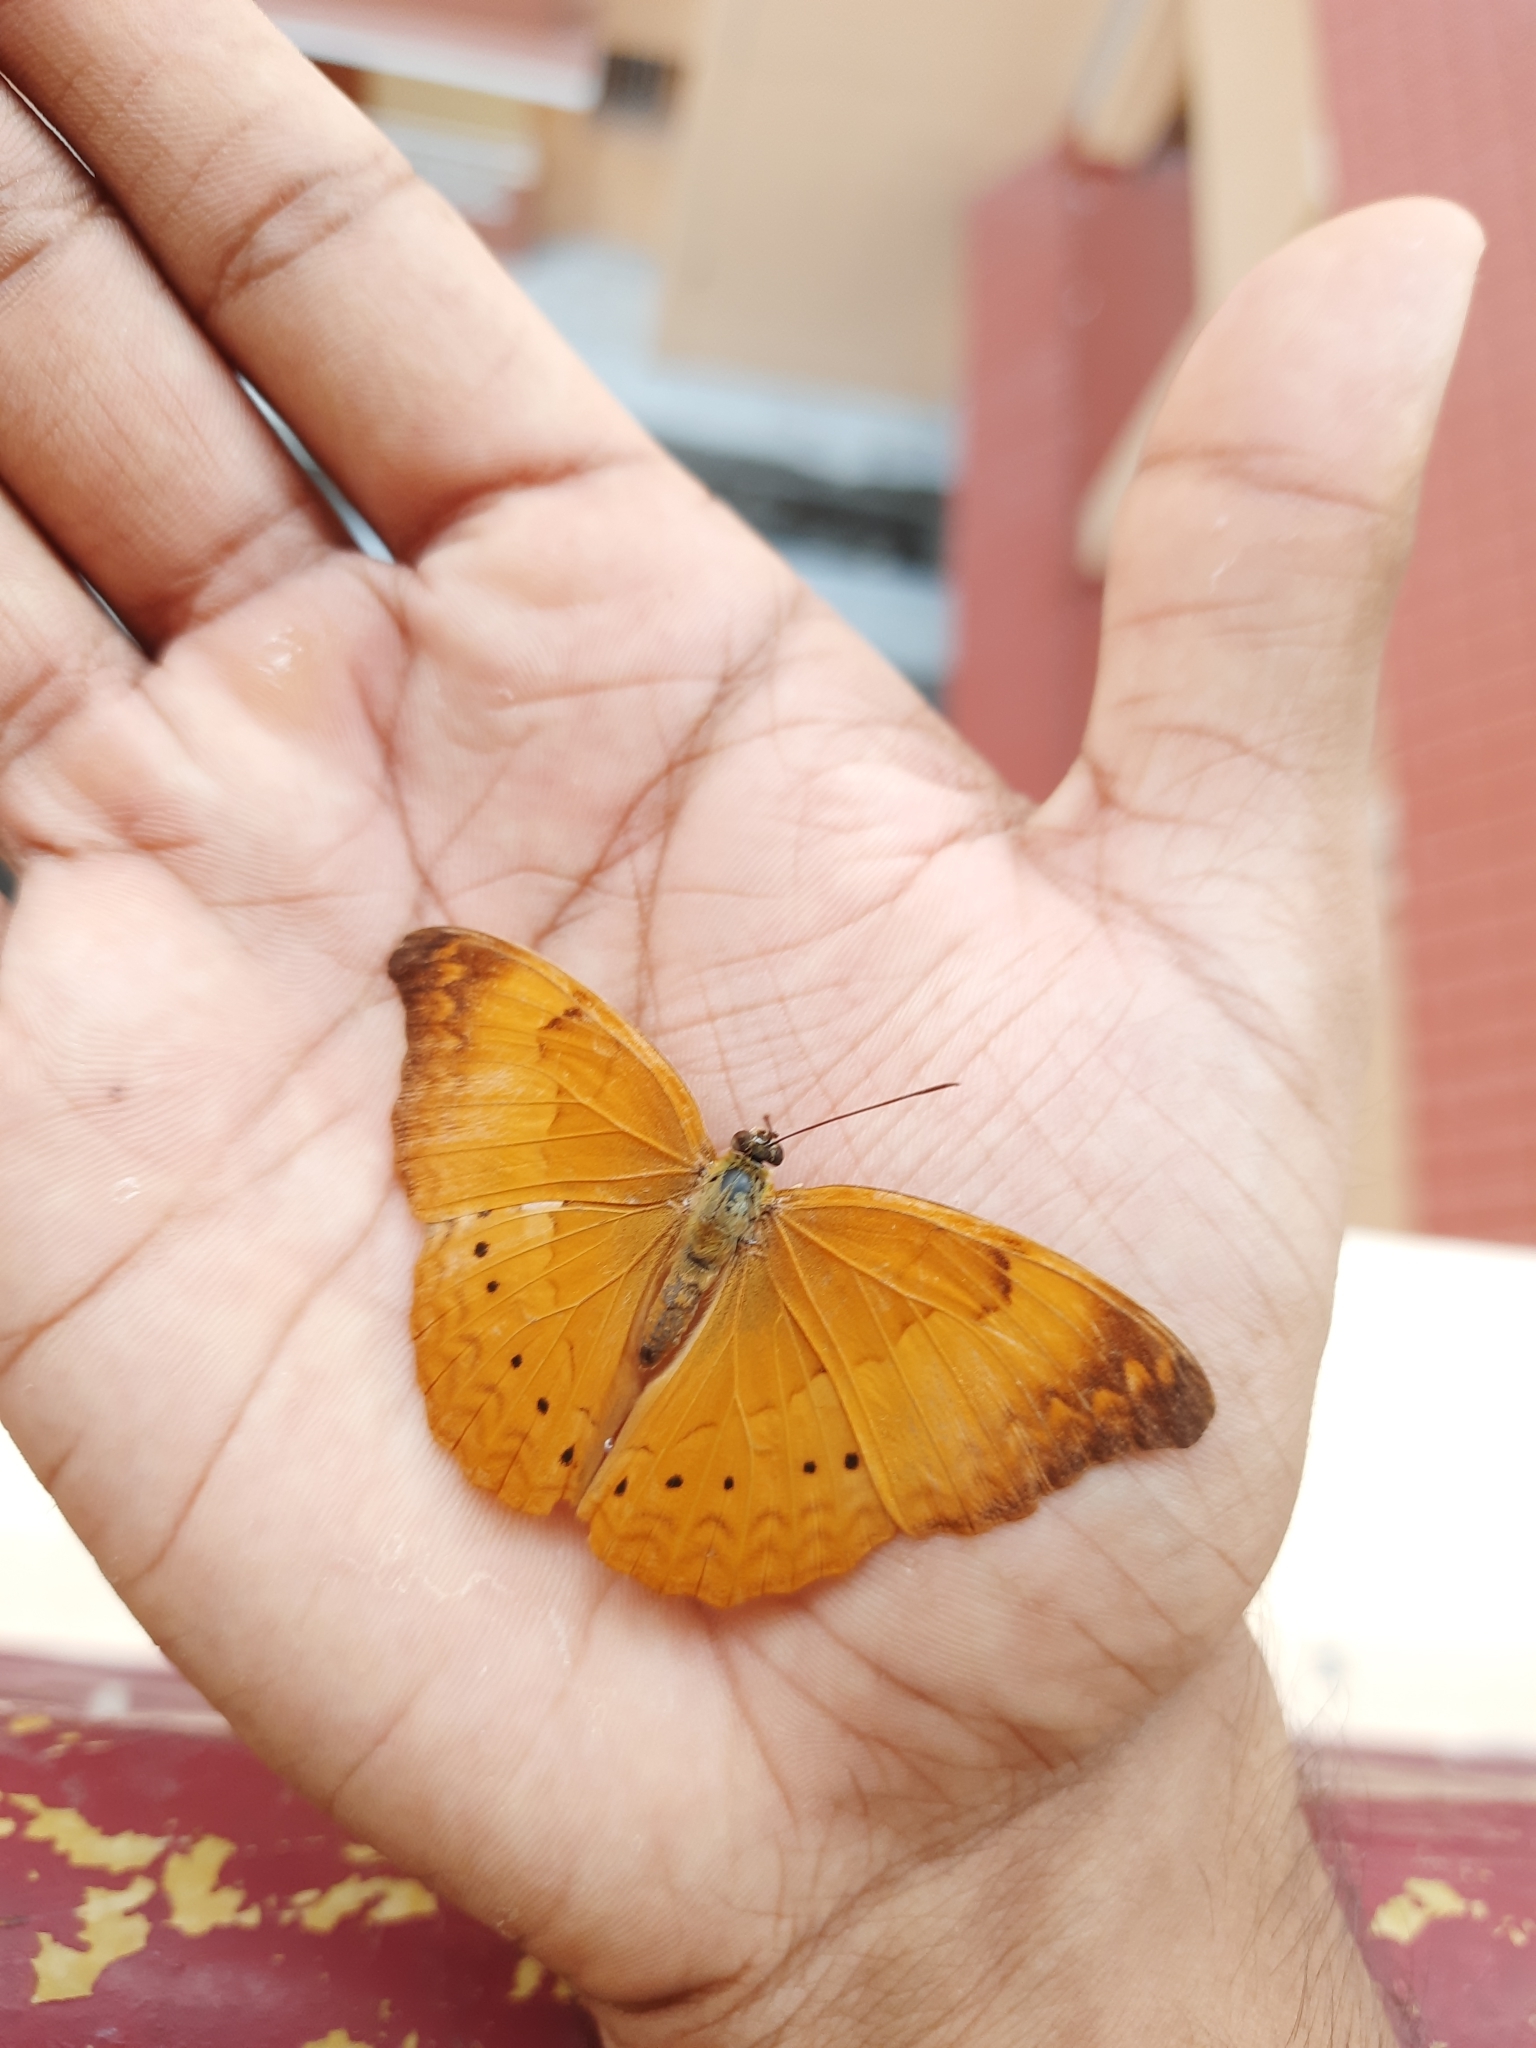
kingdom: Animalia
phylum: Arthropoda
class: Insecta
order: Lepidoptera
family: Nymphalidae
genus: Cirrochroa
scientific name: Cirrochroa thais
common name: Tamil yeoman
